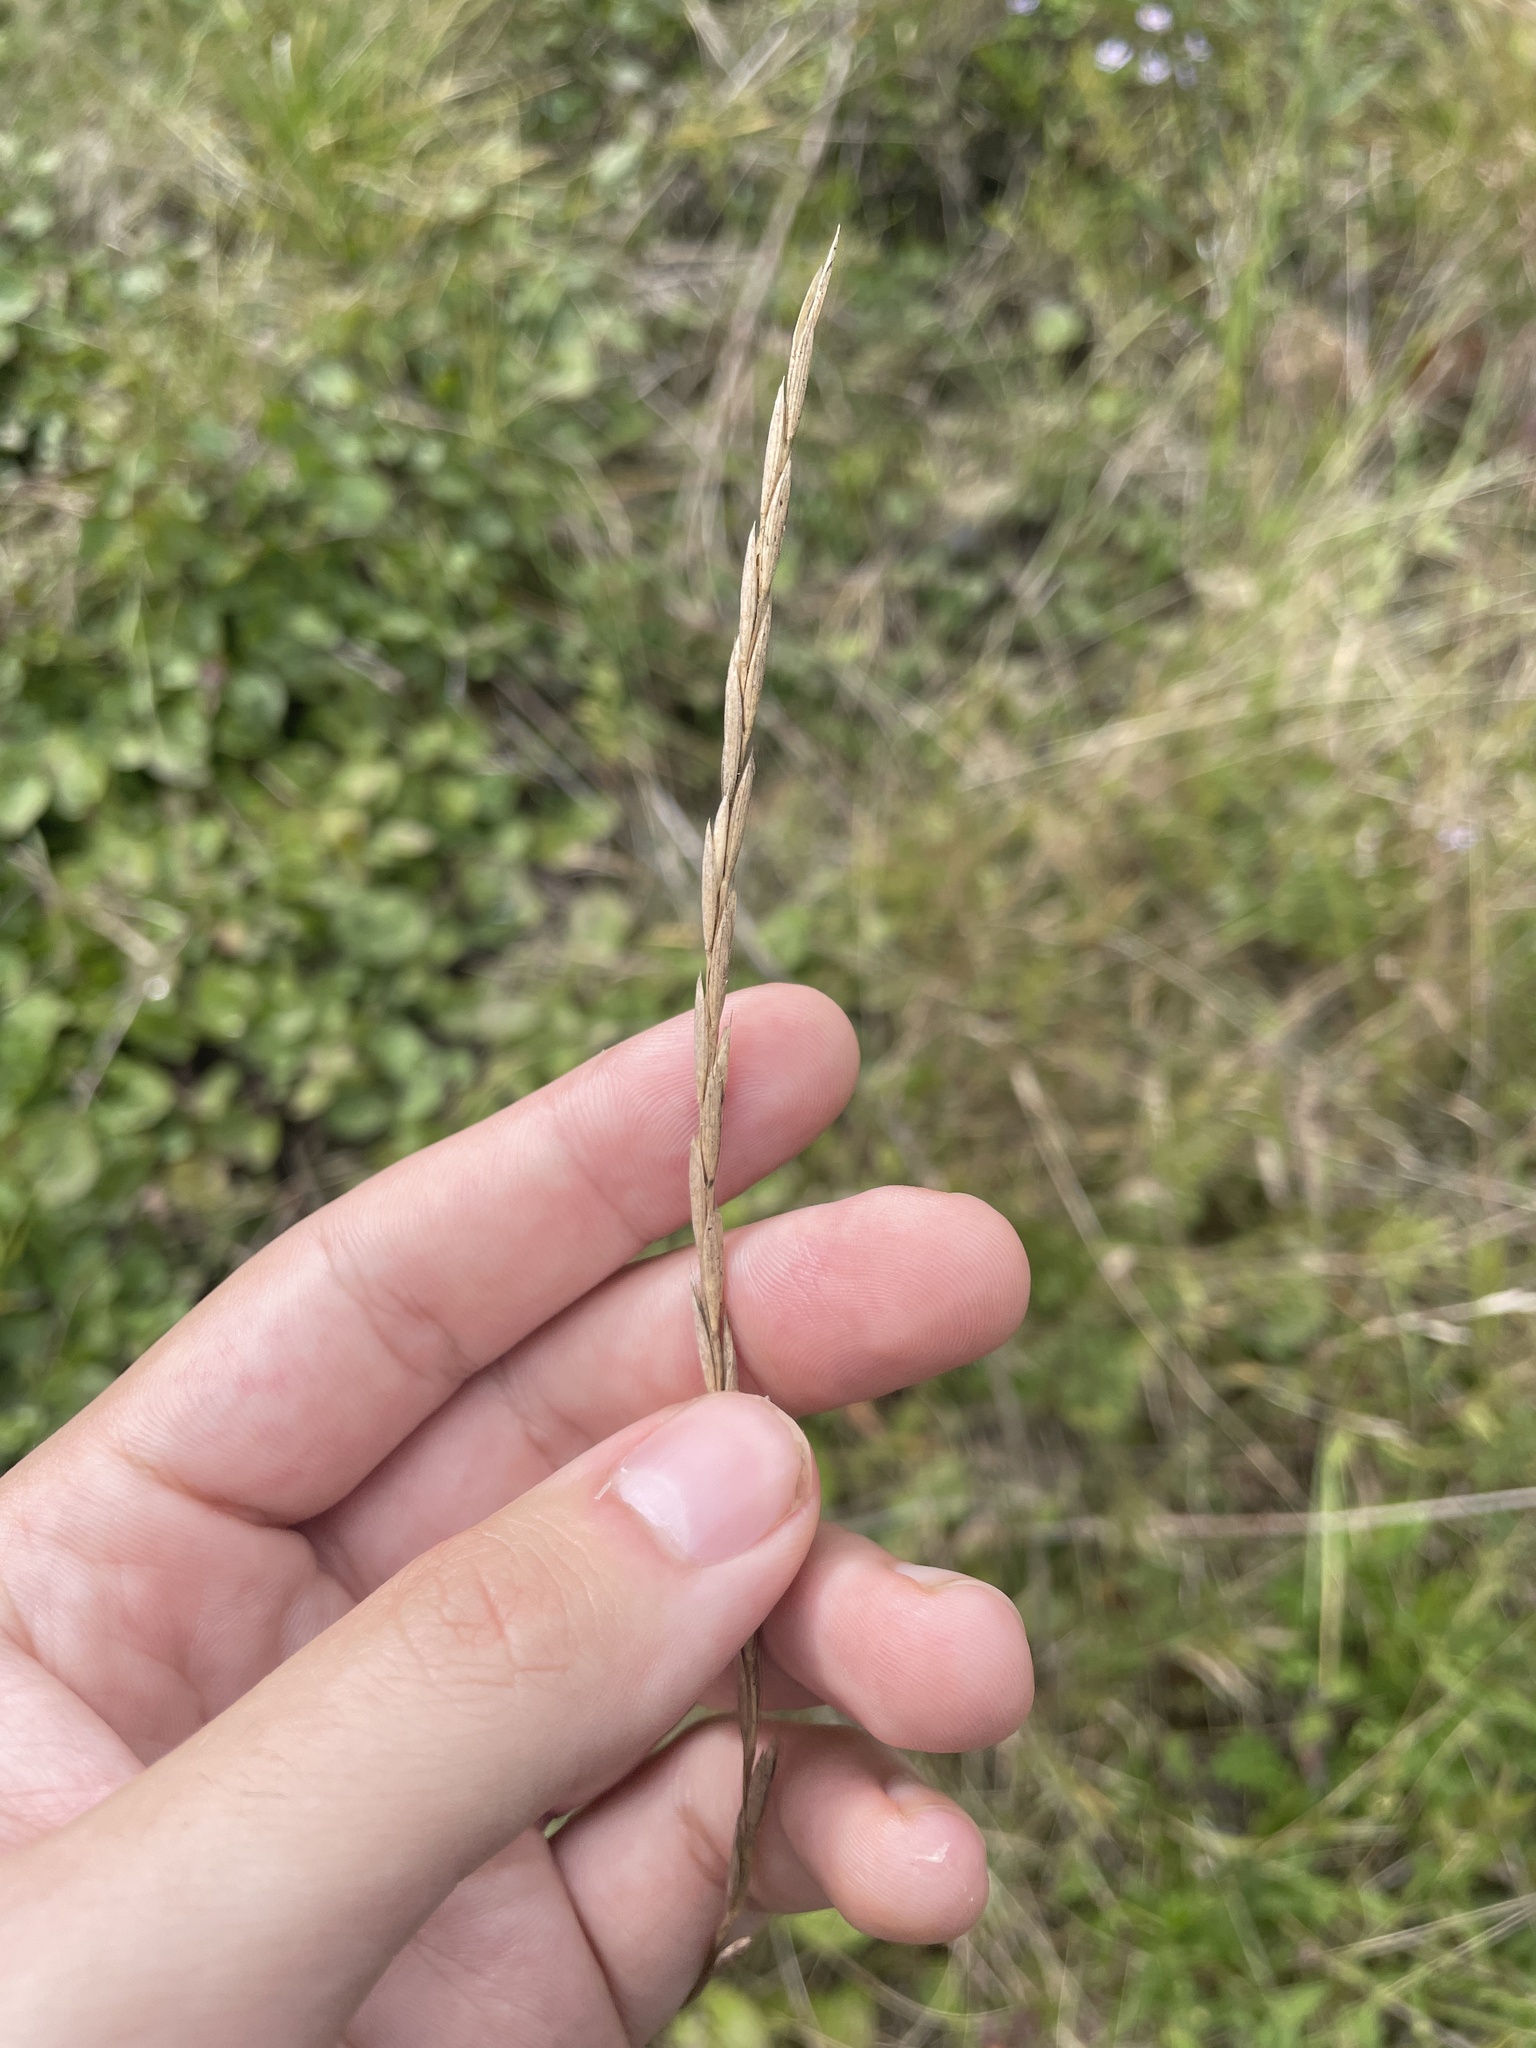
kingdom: Plantae
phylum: Tracheophyta
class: Liliopsida
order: Poales
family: Poaceae
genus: Elymus
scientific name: Elymus violaceus
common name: Arctic wheatgrass
